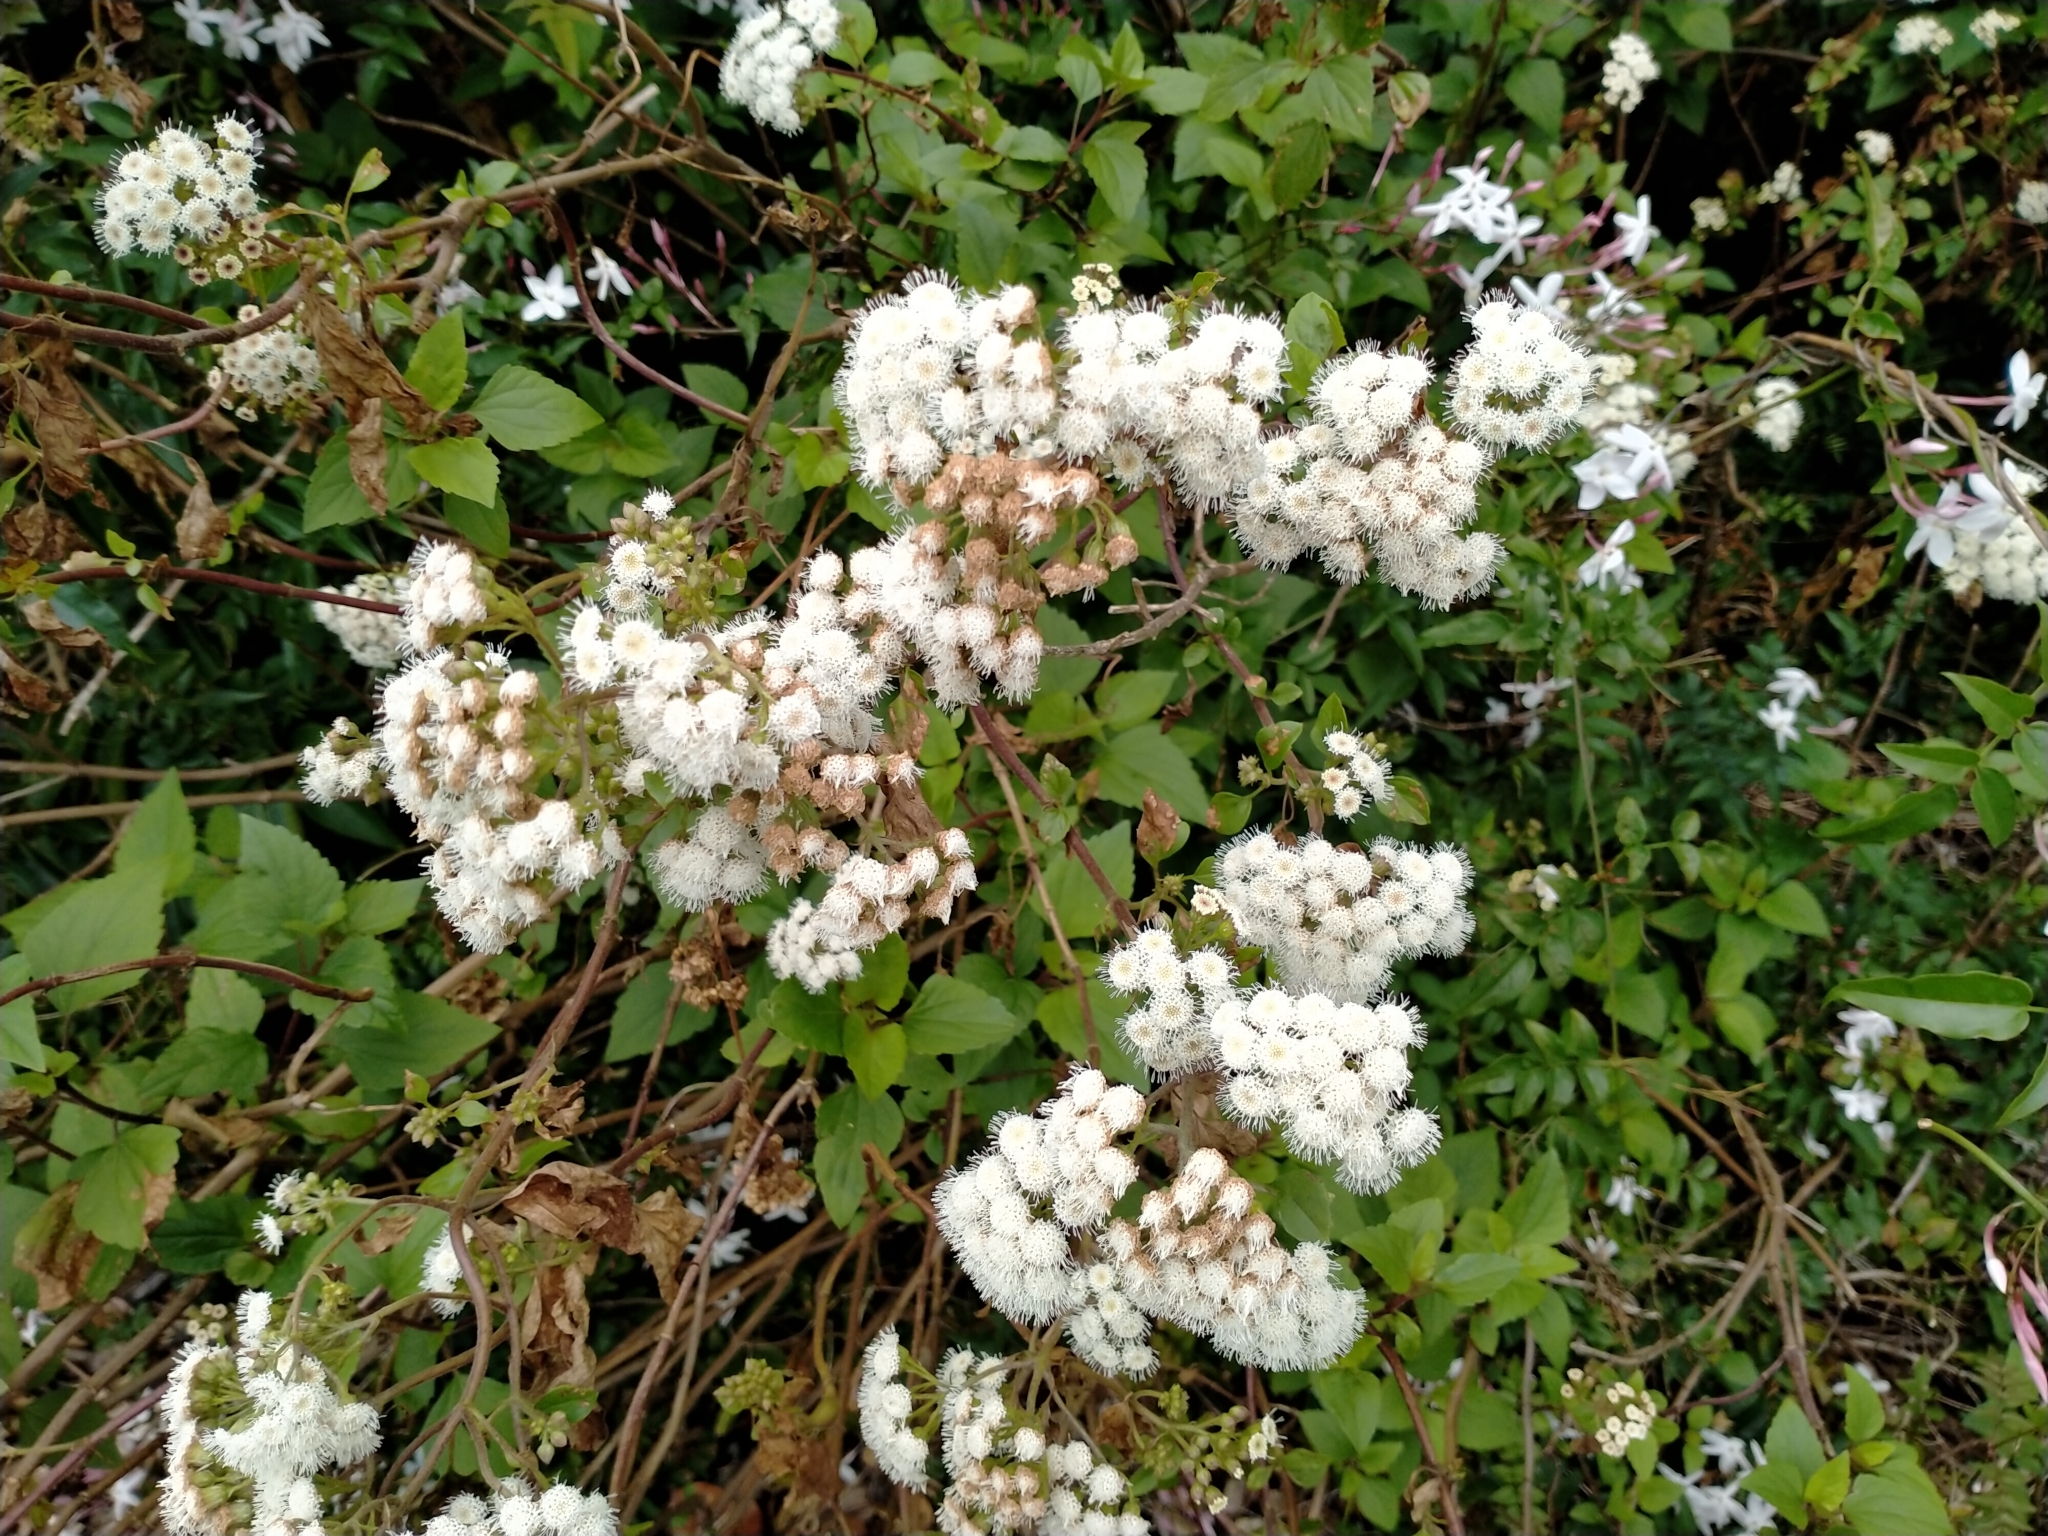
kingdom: Plantae
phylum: Tracheophyta
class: Magnoliopsida
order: Asterales
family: Asteraceae
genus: Ageratina
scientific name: Ageratina adenophora
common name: Sticky snakeroot
